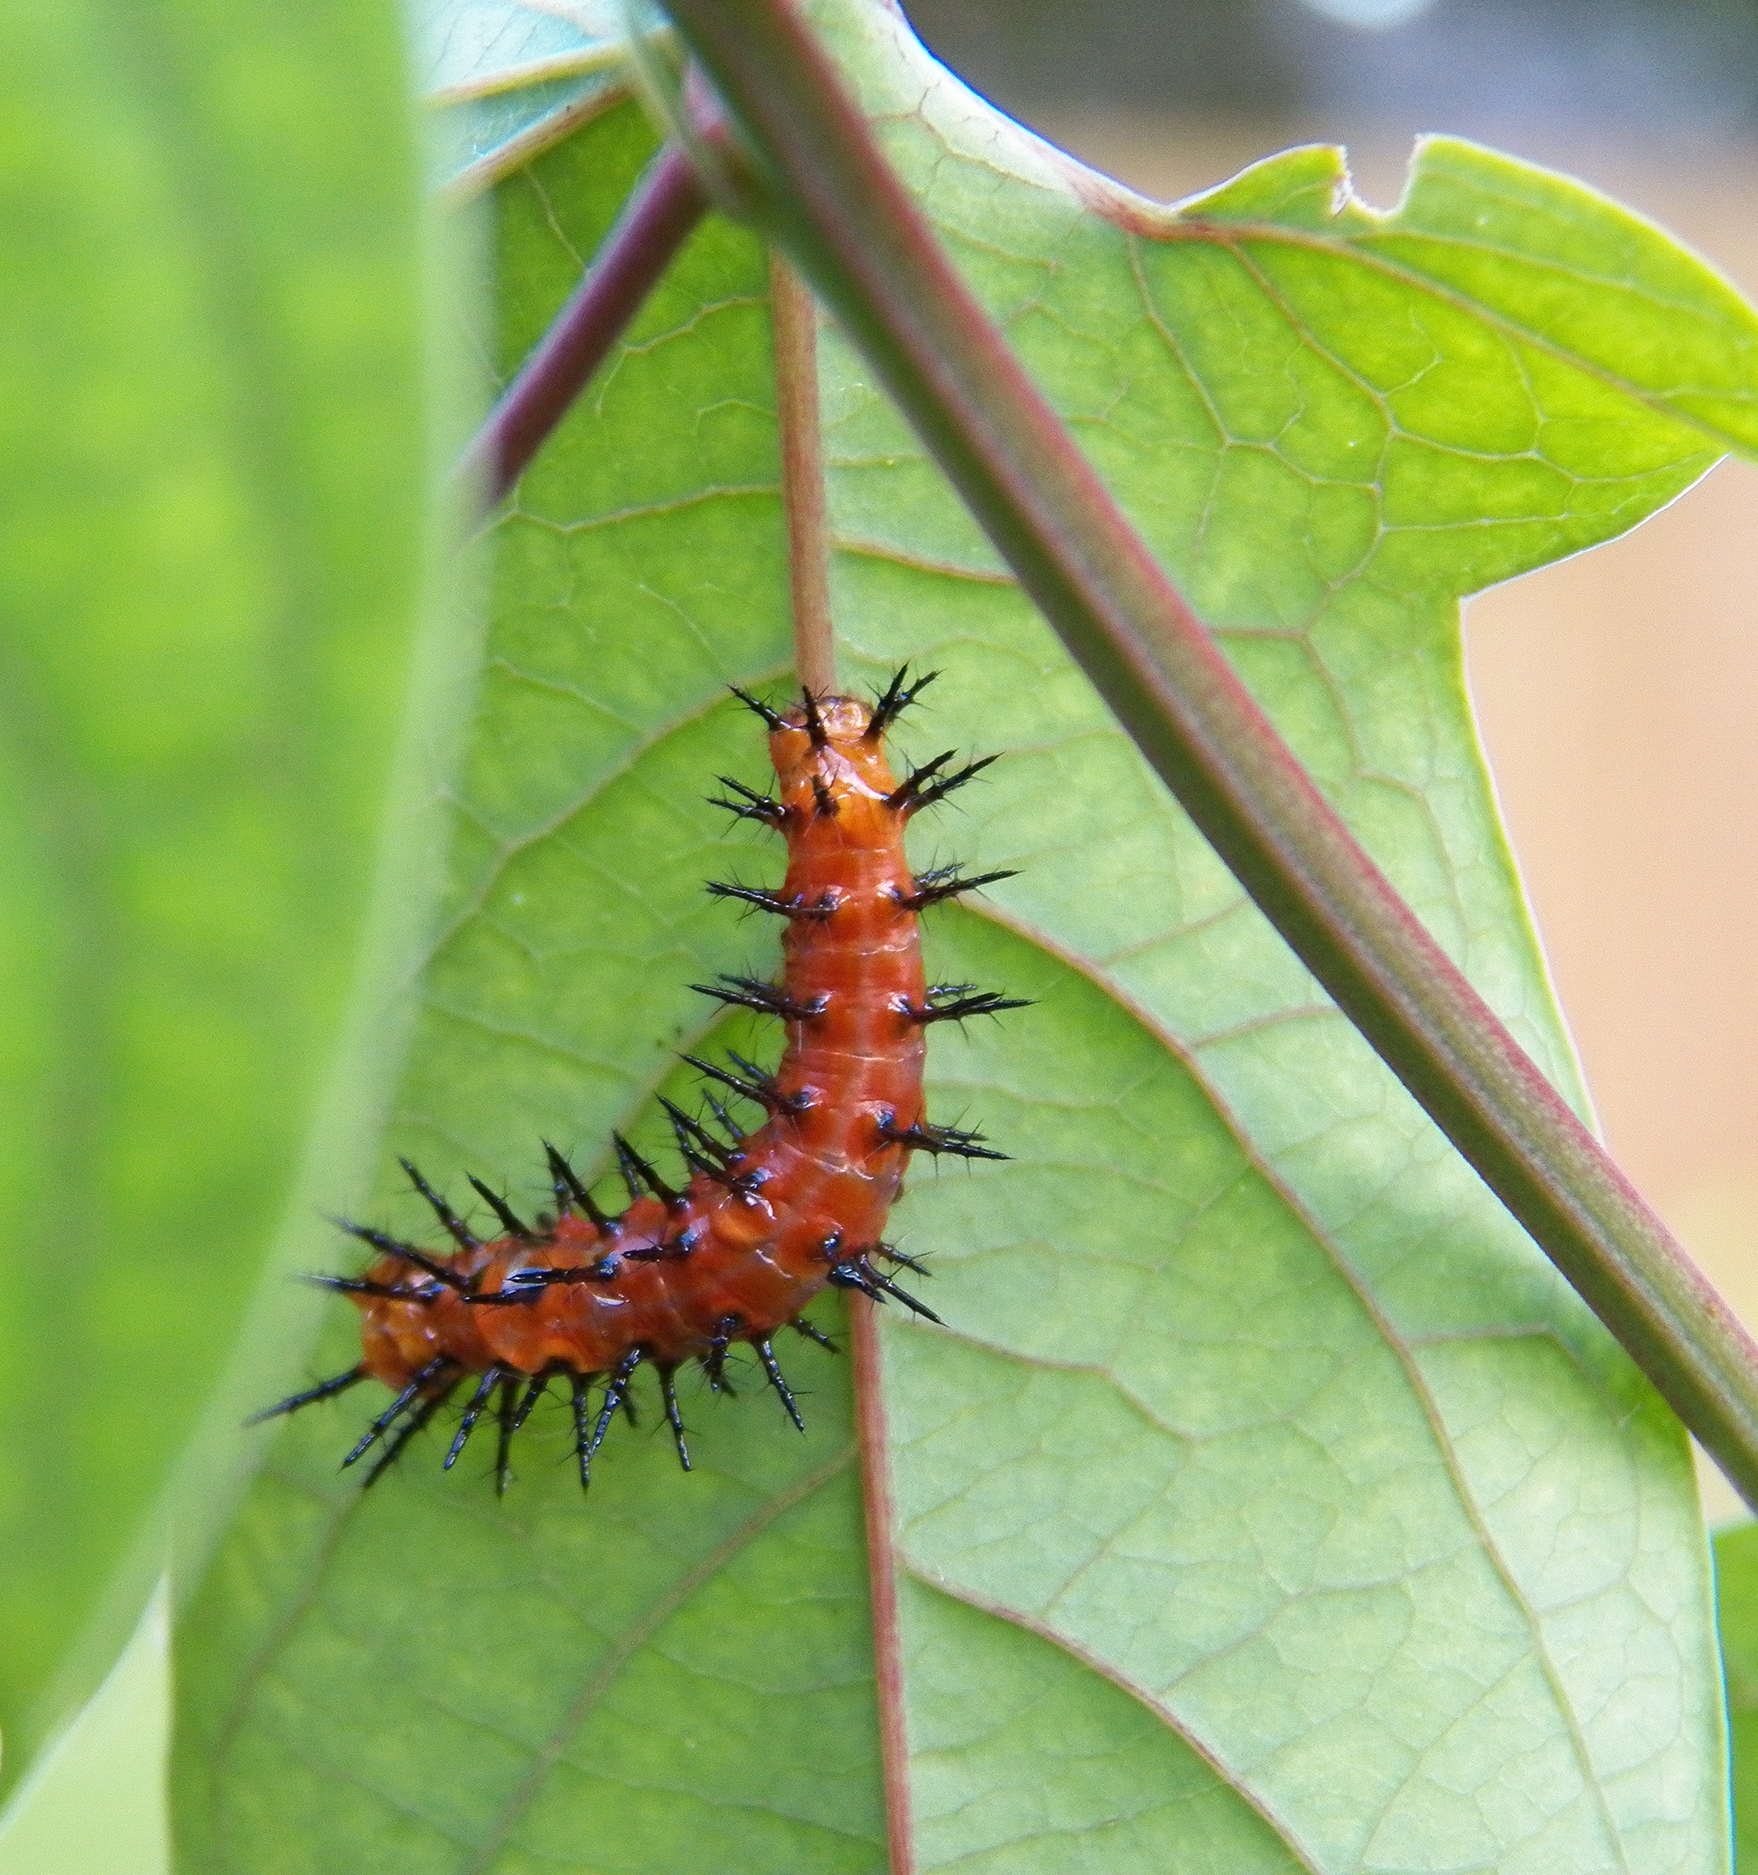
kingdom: Animalia
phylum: Arthropoda
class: Insecta
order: Lepidoptera
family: Nymphalidae
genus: Dione
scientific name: Dione vanillae
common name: Gulf fritillary
